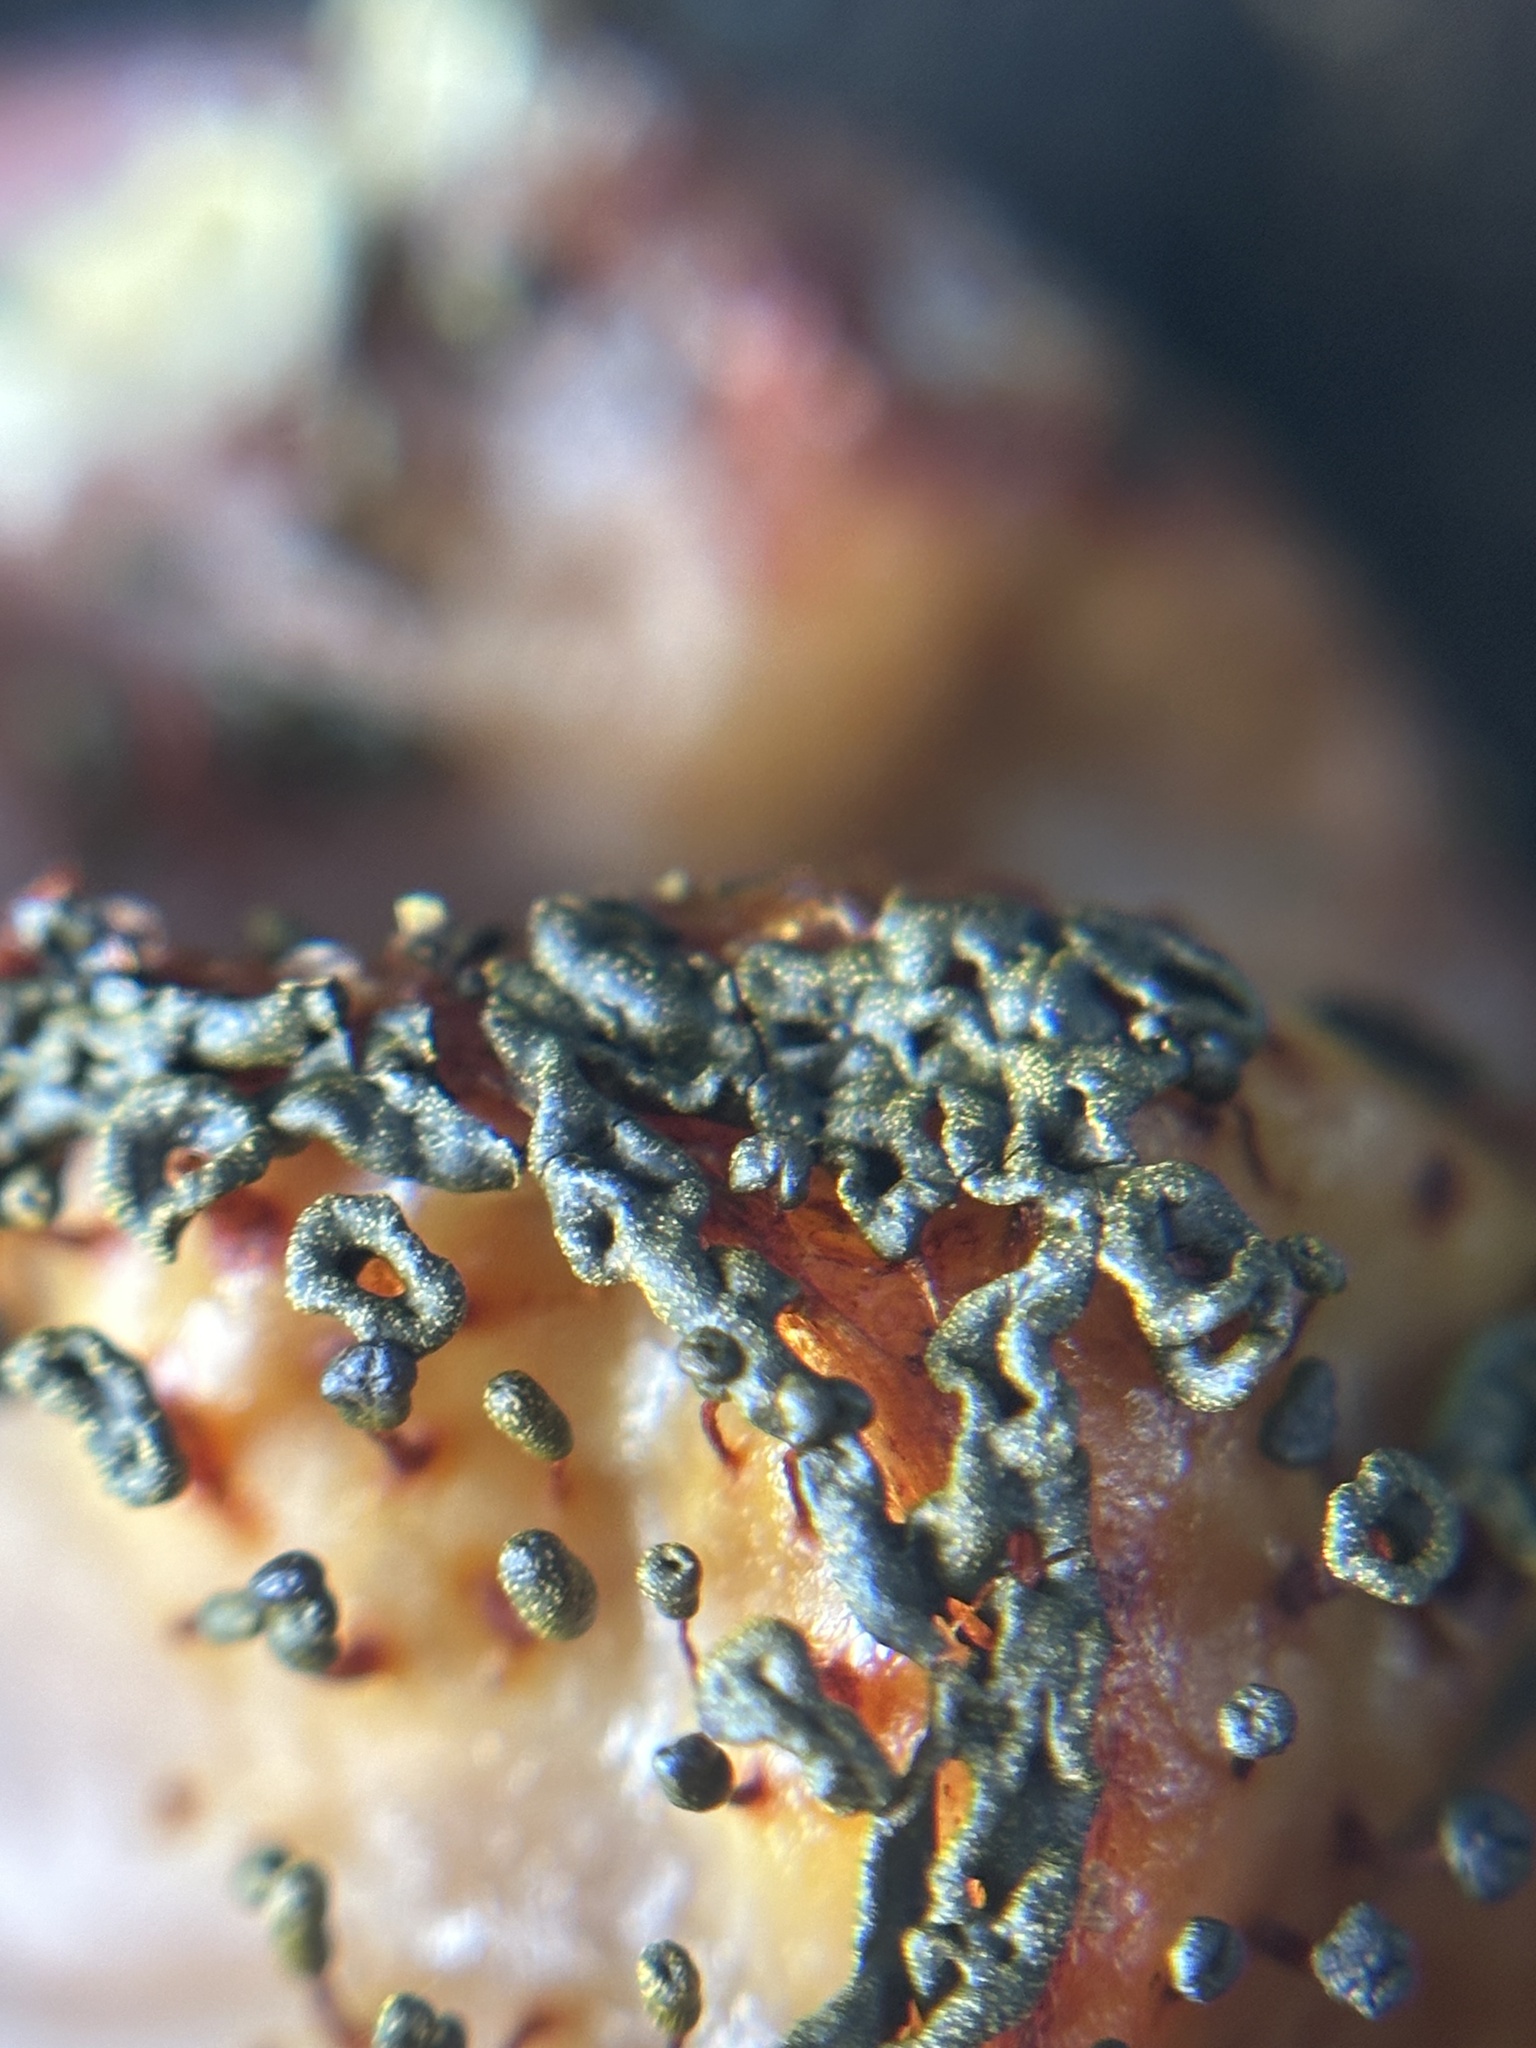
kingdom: Protozoa
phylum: Mycetozoa
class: Myxomycetes
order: Physarales
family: Physaraceae
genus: Physarella
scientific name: Physarella oblonga
